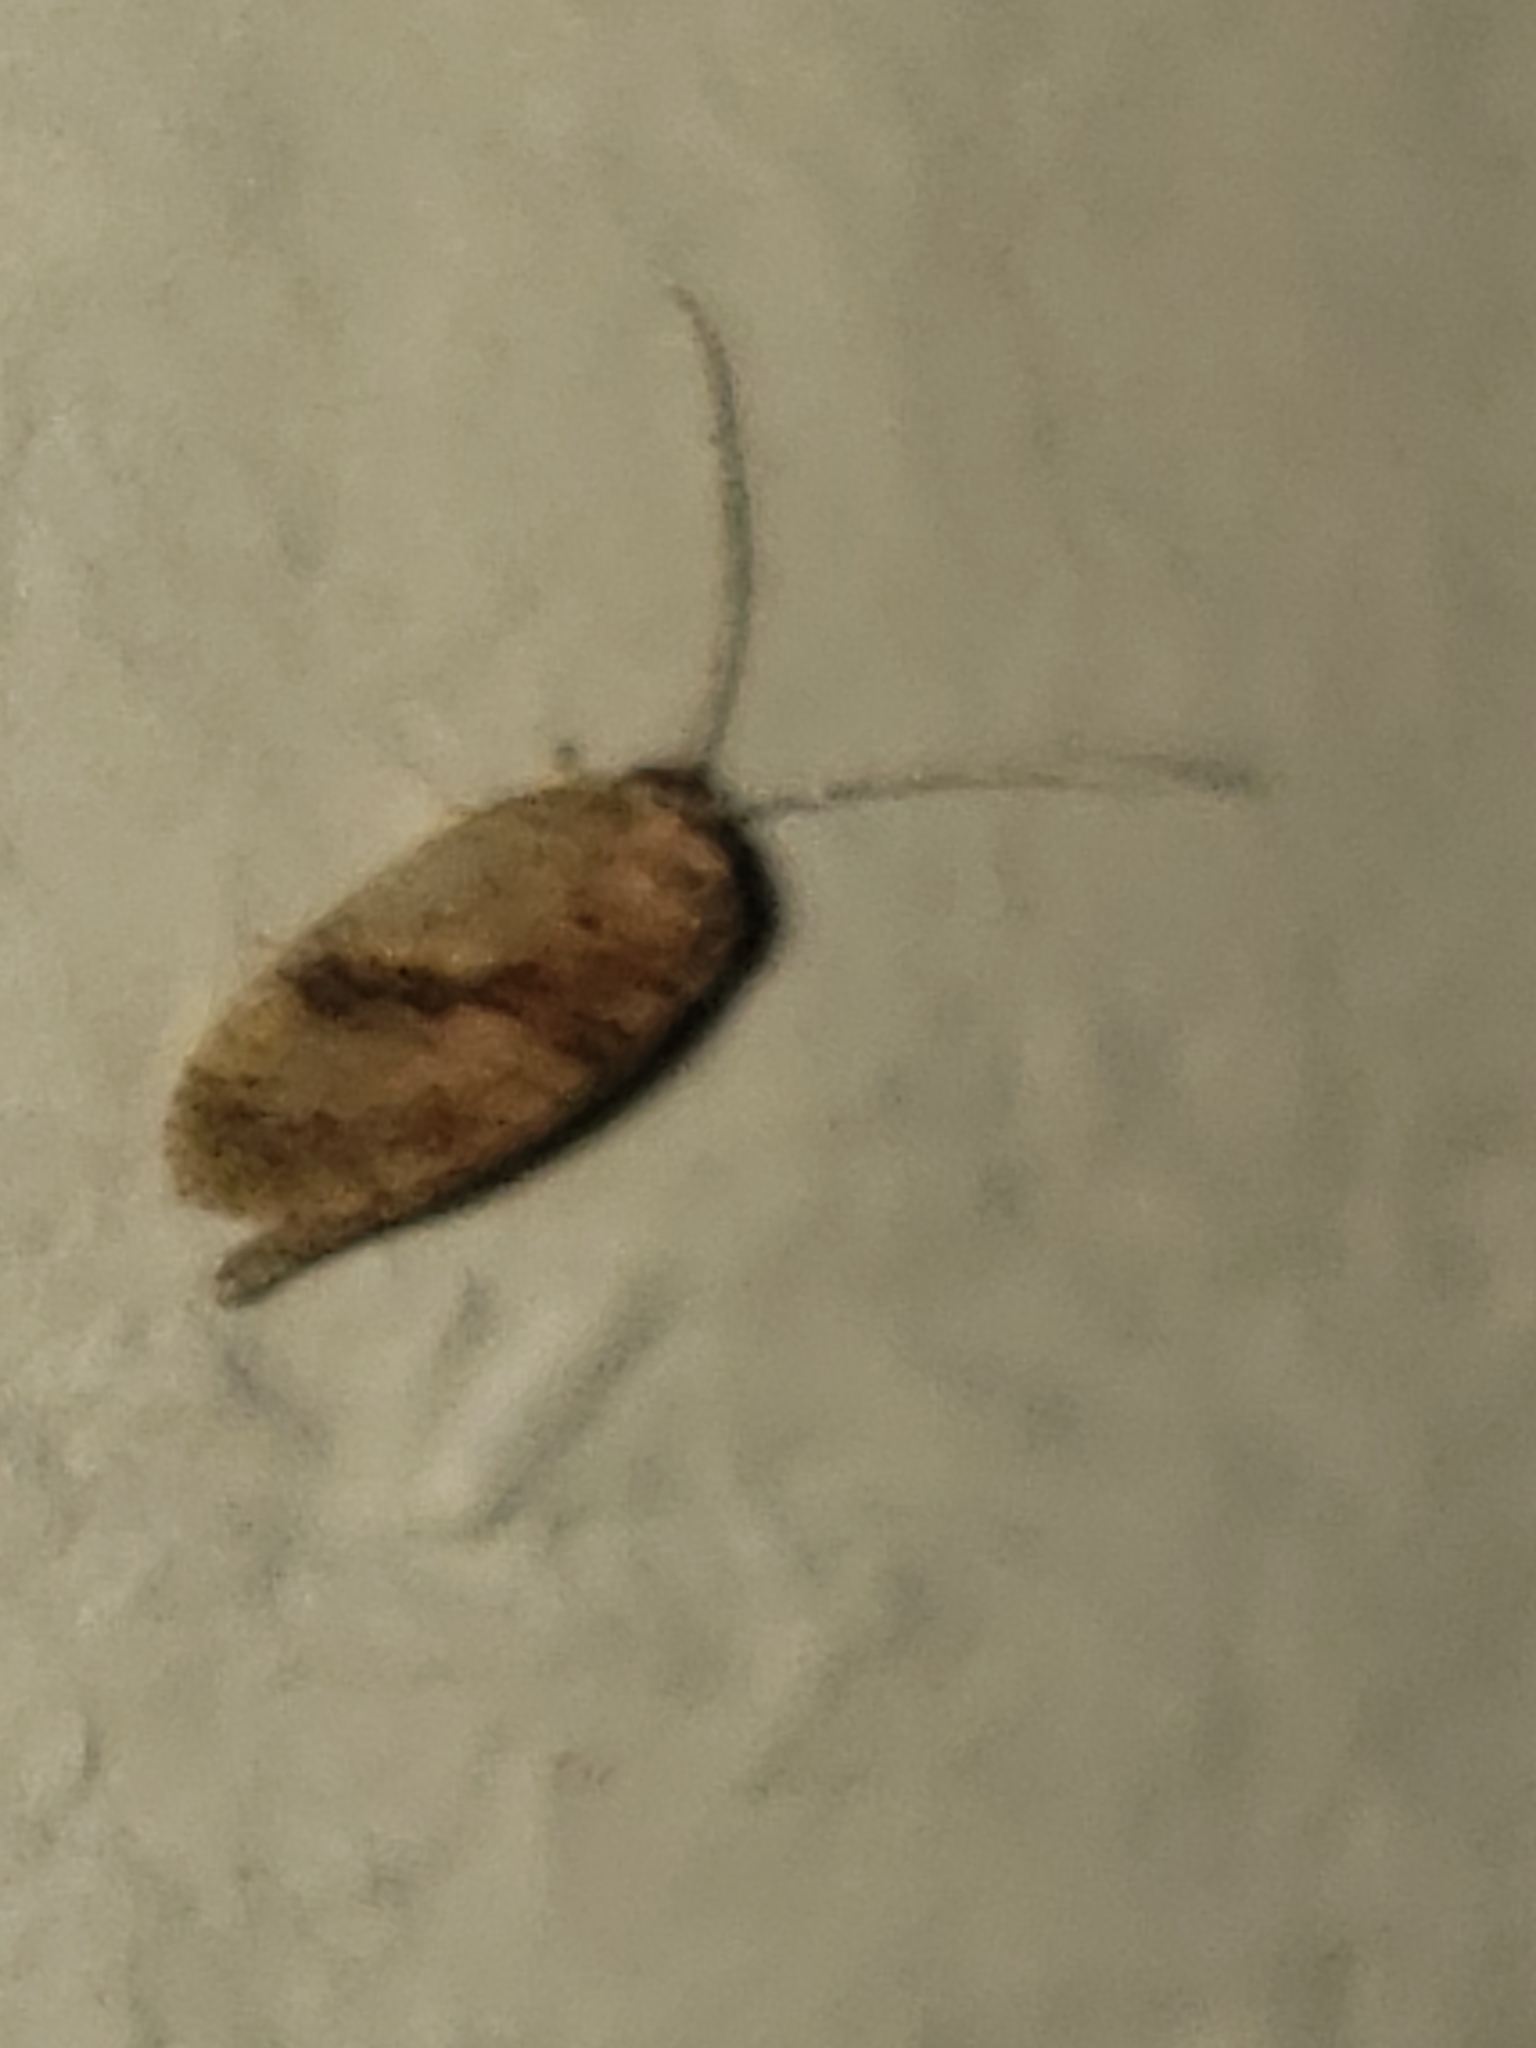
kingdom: Animalia
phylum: Arthropoda
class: Insecta
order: Neuroptera
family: Hemerobiidae
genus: Megalomus
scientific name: Megalomus fidelis
